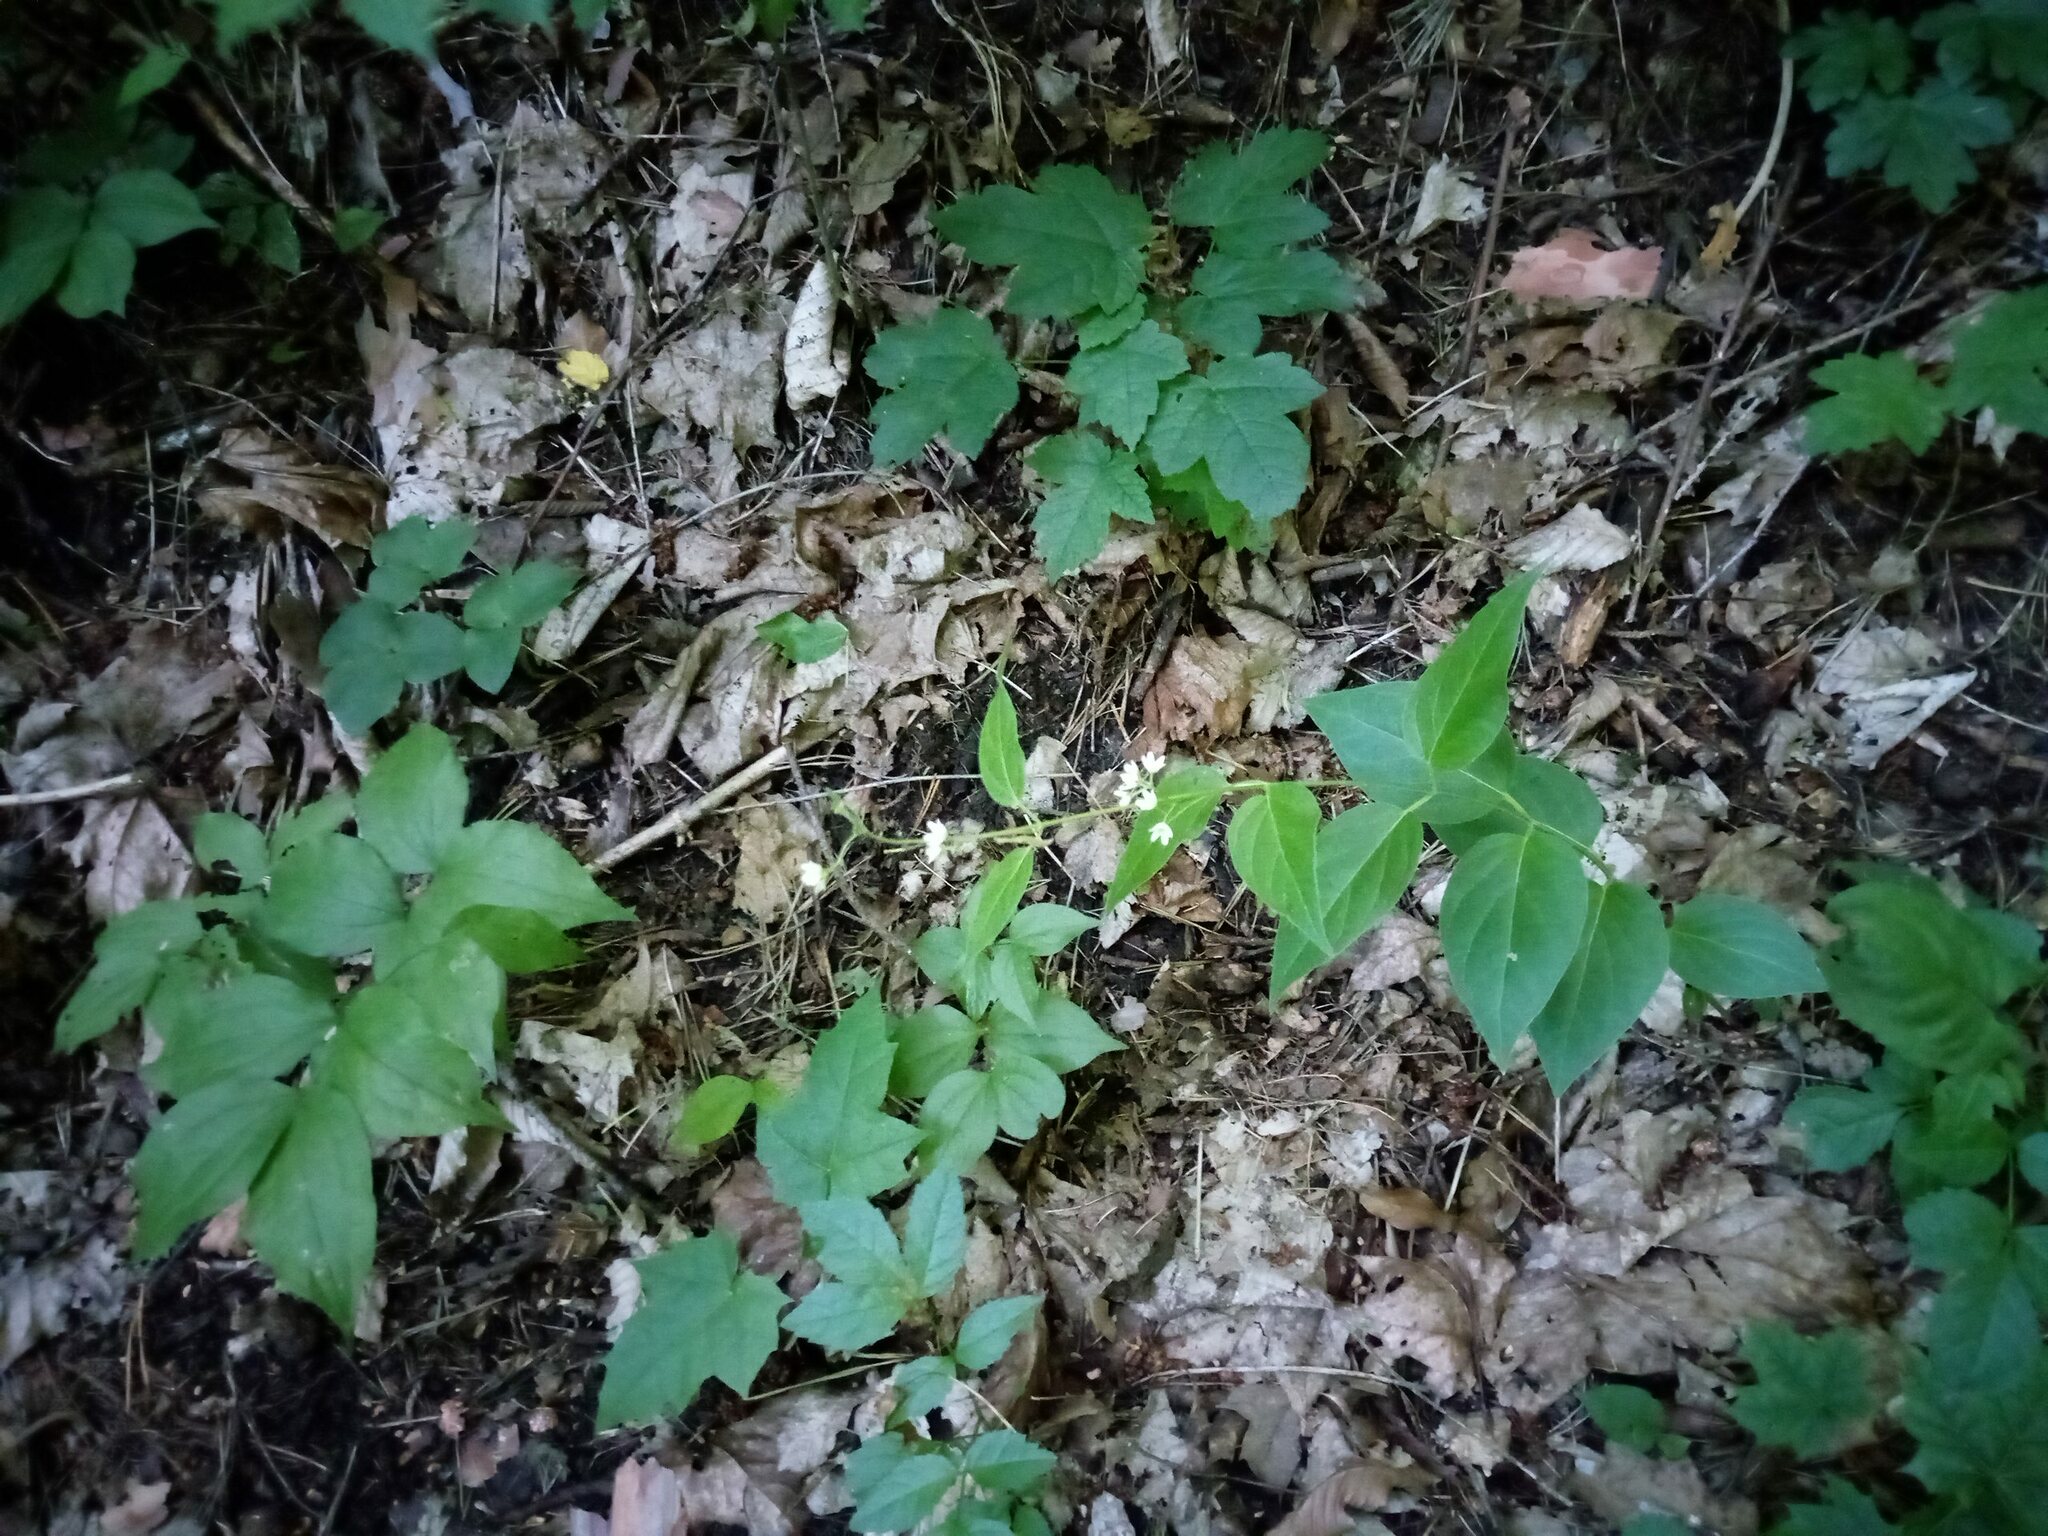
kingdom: Plantae
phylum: Tracheophyta
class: Magnoliopsida
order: Gentianales
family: Apocynaceae
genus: Vincetoxicum
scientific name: Vincetoxicum hirundinaria
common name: White swallowwort
